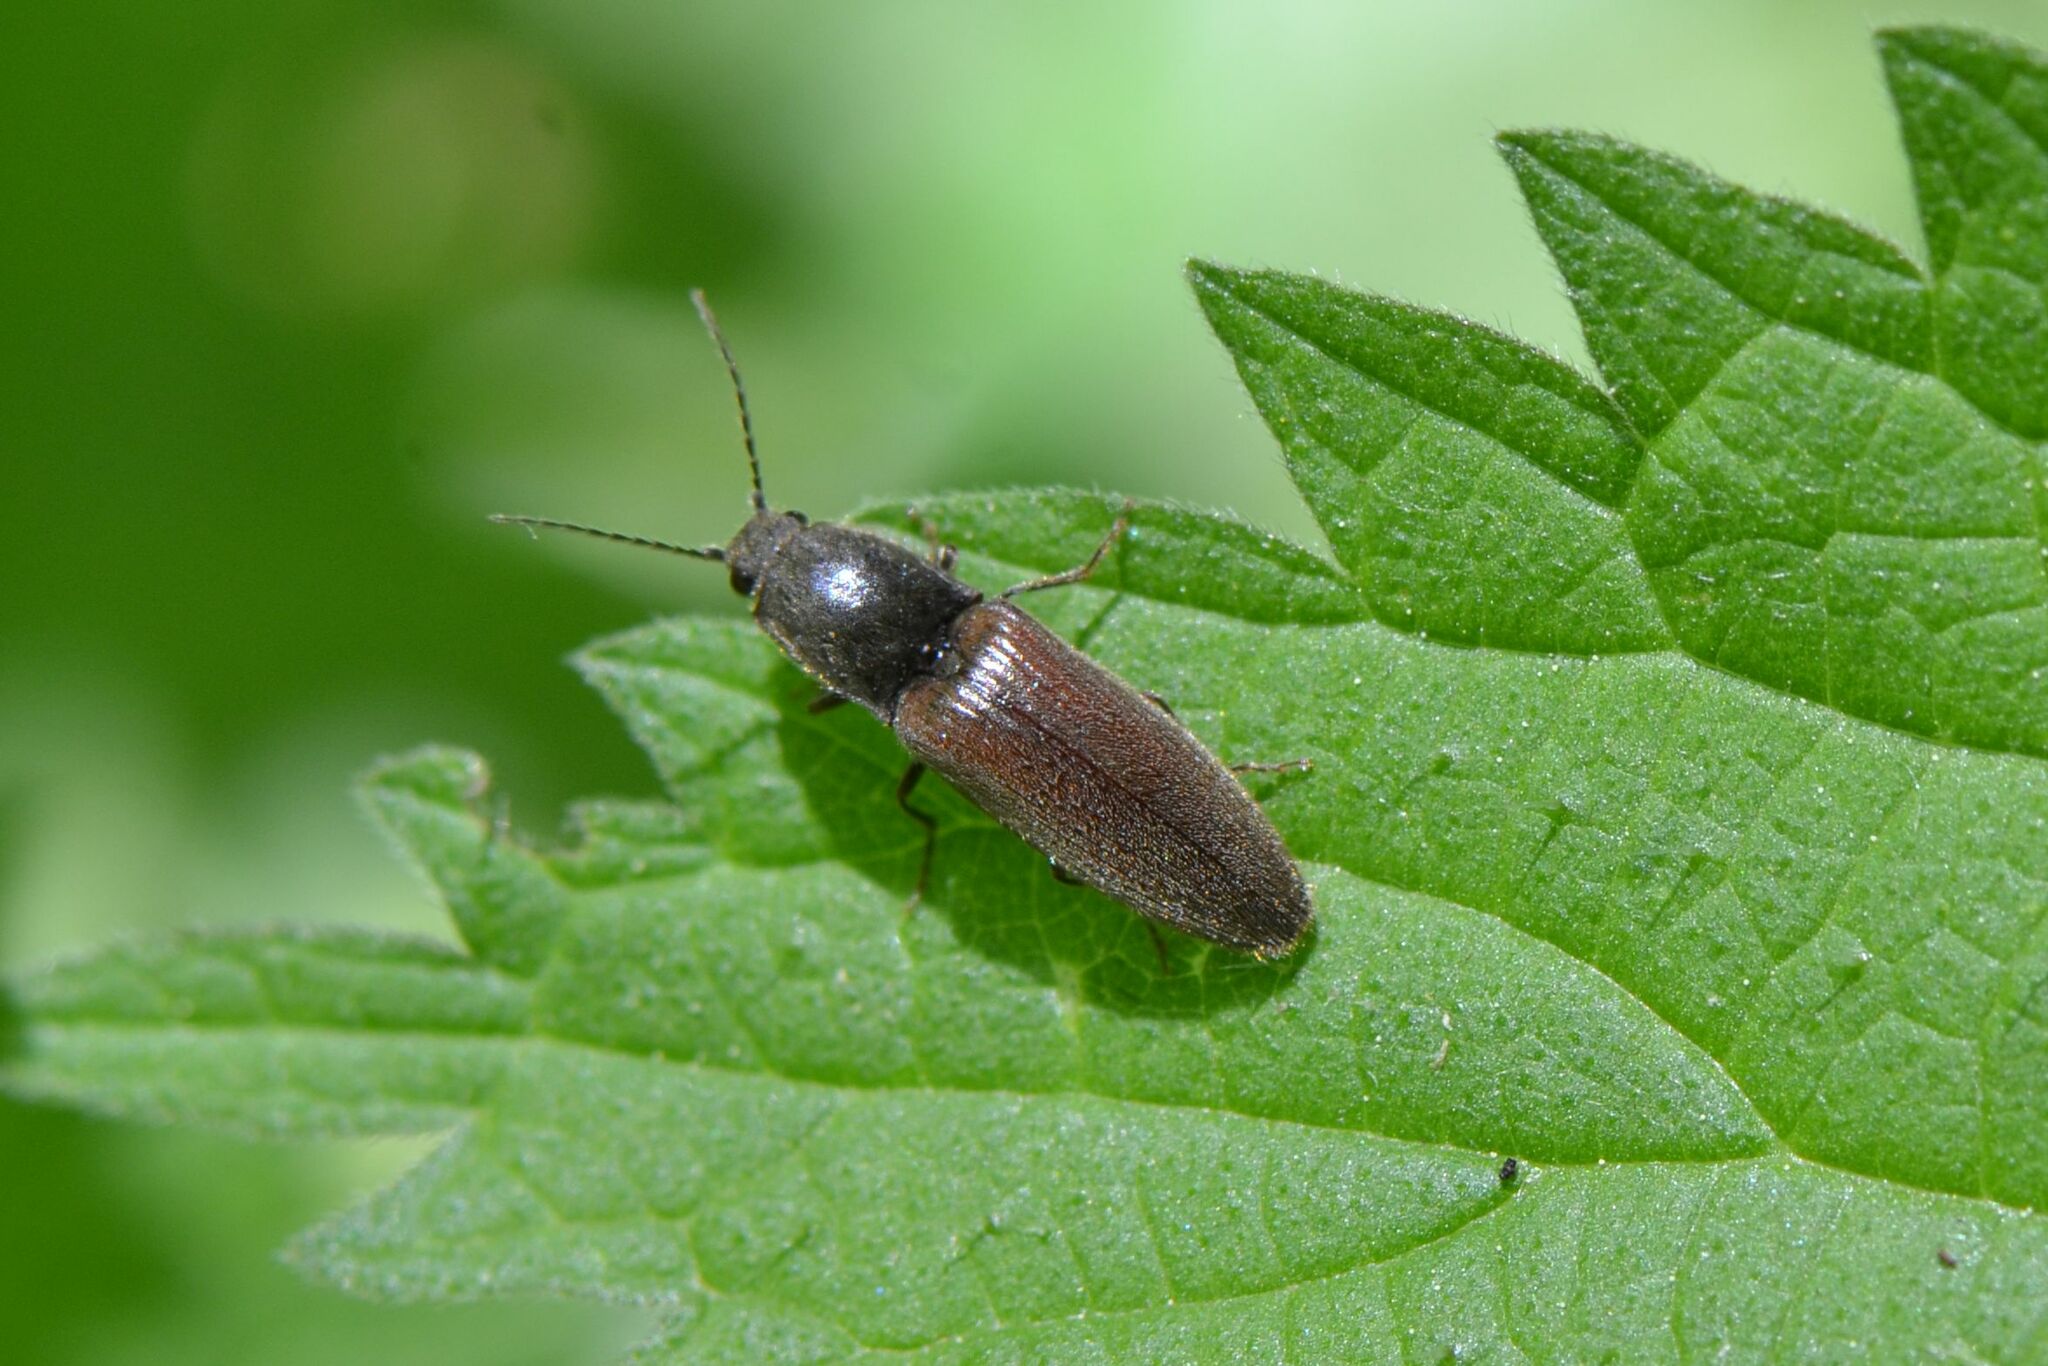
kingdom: Animalia
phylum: Arthropoda
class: Insecta
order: Coleoptera
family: Elateridae
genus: Athous
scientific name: Athous haemorrhoidalis
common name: Red-brown click beetle
